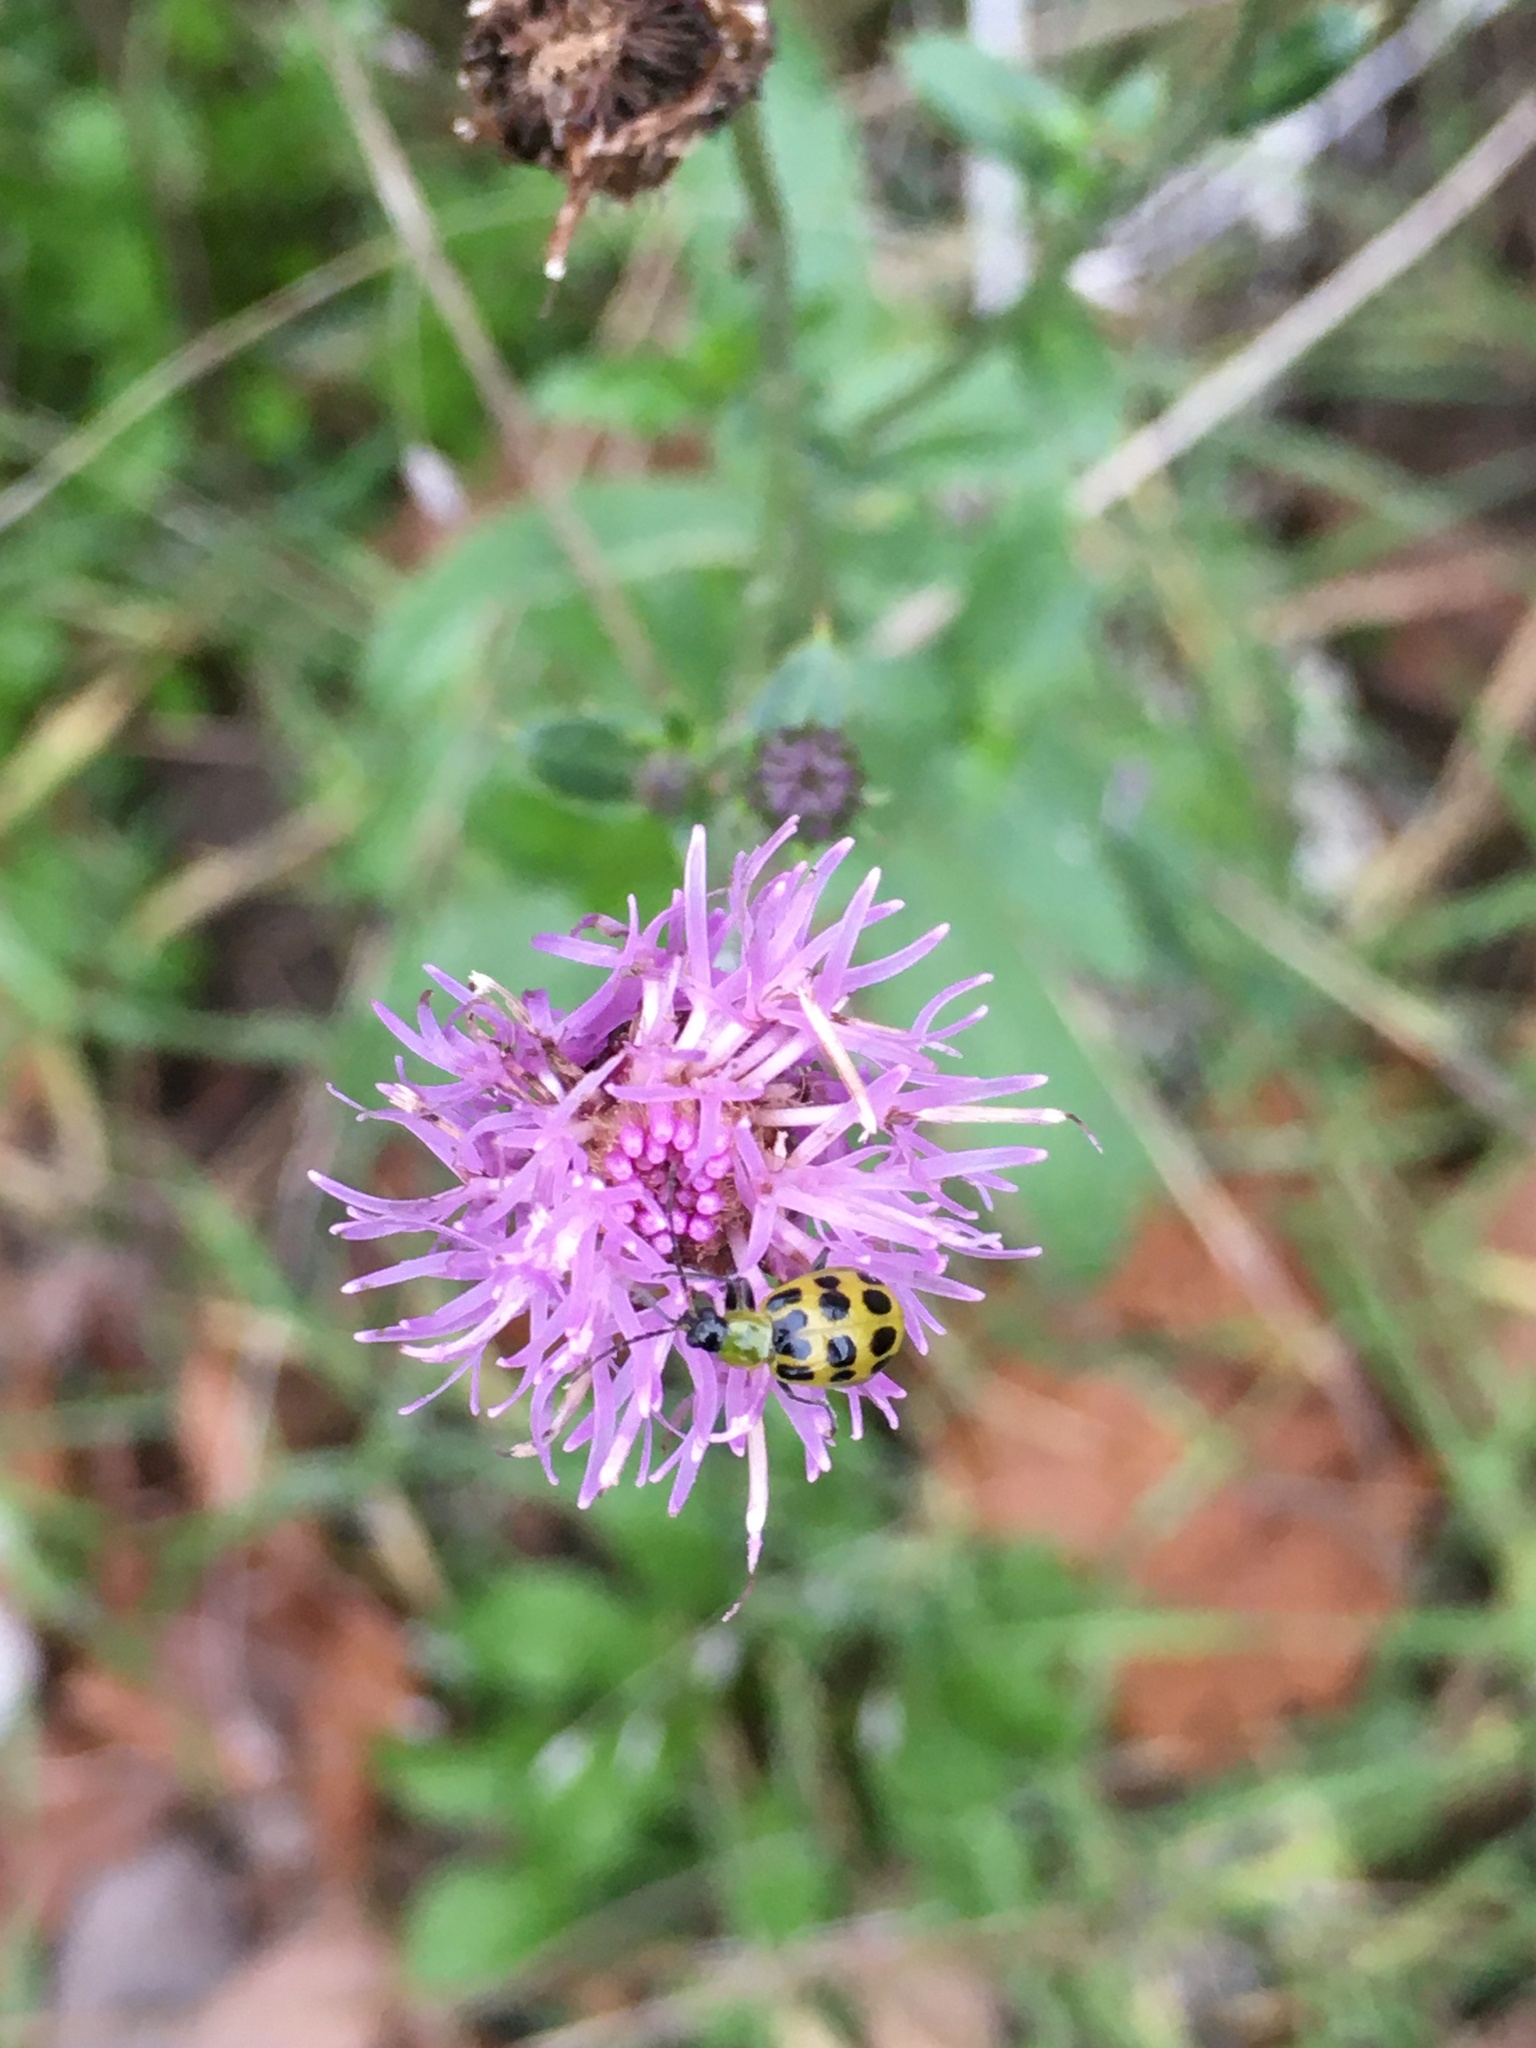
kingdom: Animalia
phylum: Arthropoda
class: Insecta
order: Coleoptera
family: Chrysomelidae
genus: Diabrotica
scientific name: Diabrotica undecimpunctata
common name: Spotted cucumber beetle
